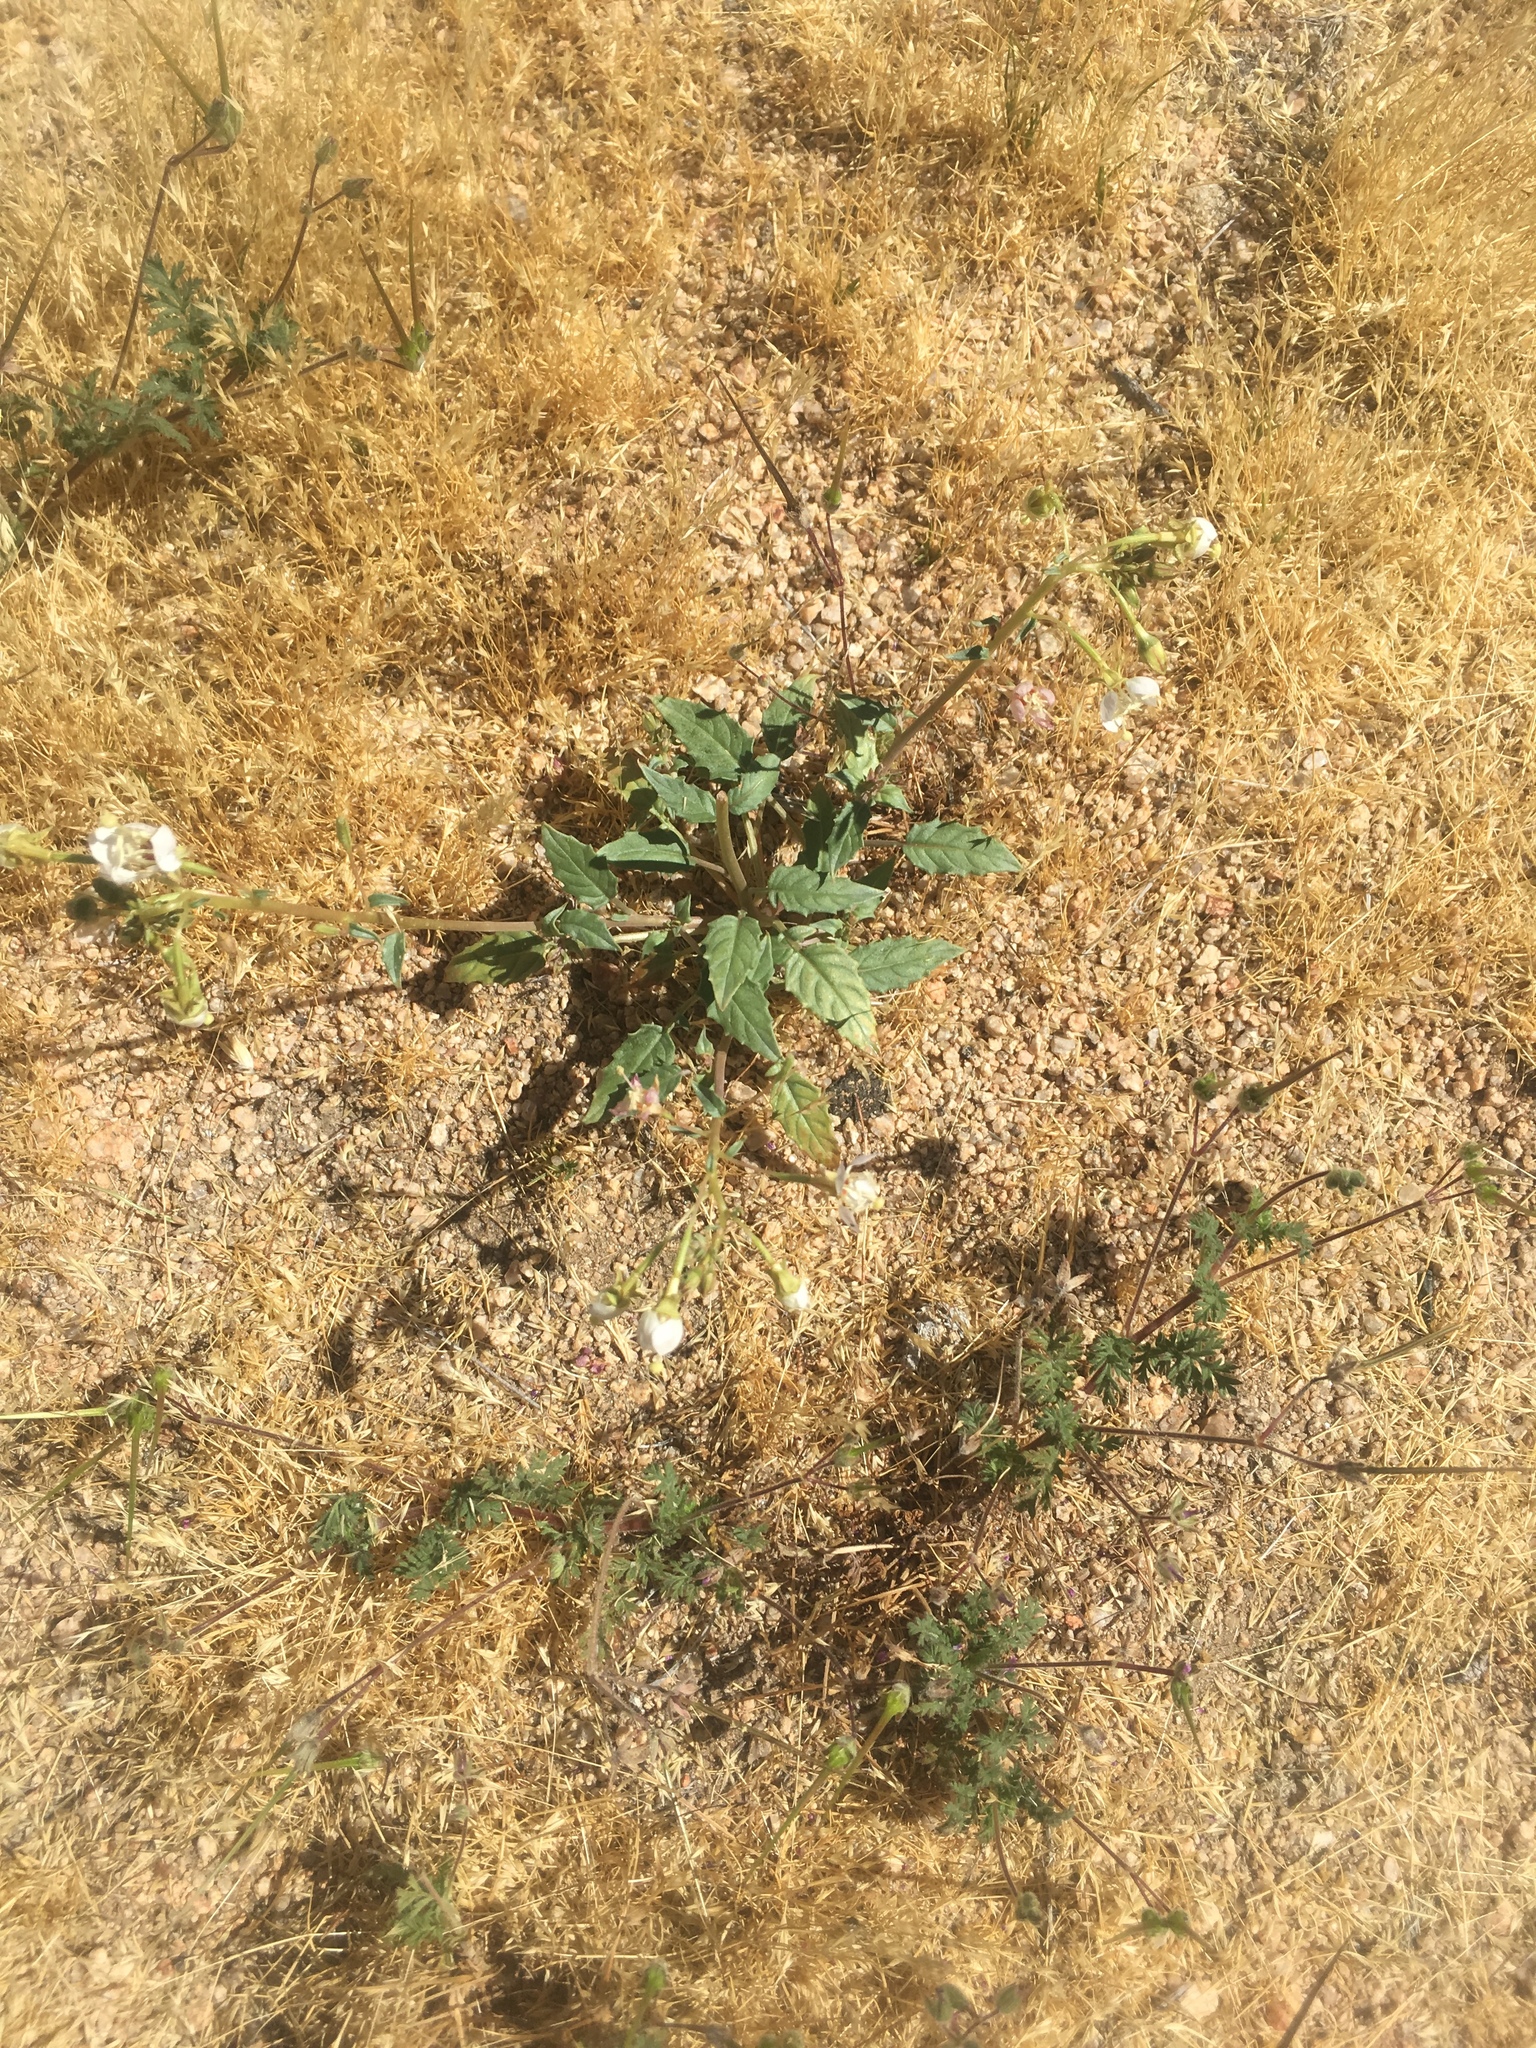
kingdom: Plantae
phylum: Tracheophyta
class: Magnoliopsida
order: Myrtales
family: Onagraceae
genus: Chylismia
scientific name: Chylismia claviformis
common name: Browneyes
